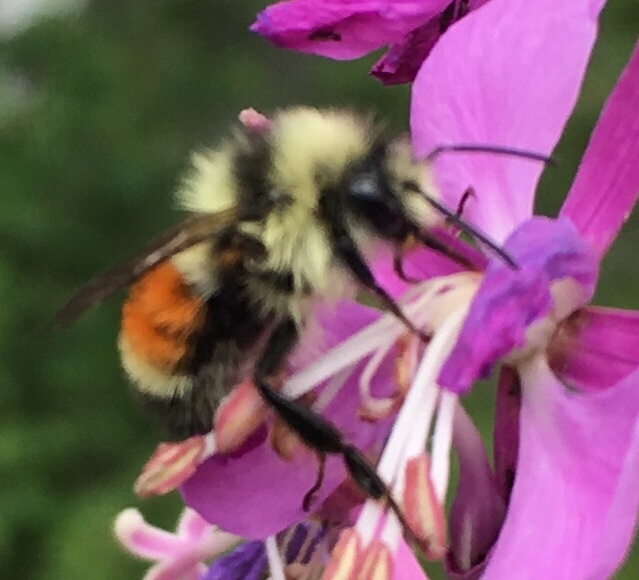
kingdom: Animalia
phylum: Arthropoda
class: Insecta
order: Hymenoptera
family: Apidae
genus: Bombus
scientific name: Bombus huntii
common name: Hunt bumble bee
